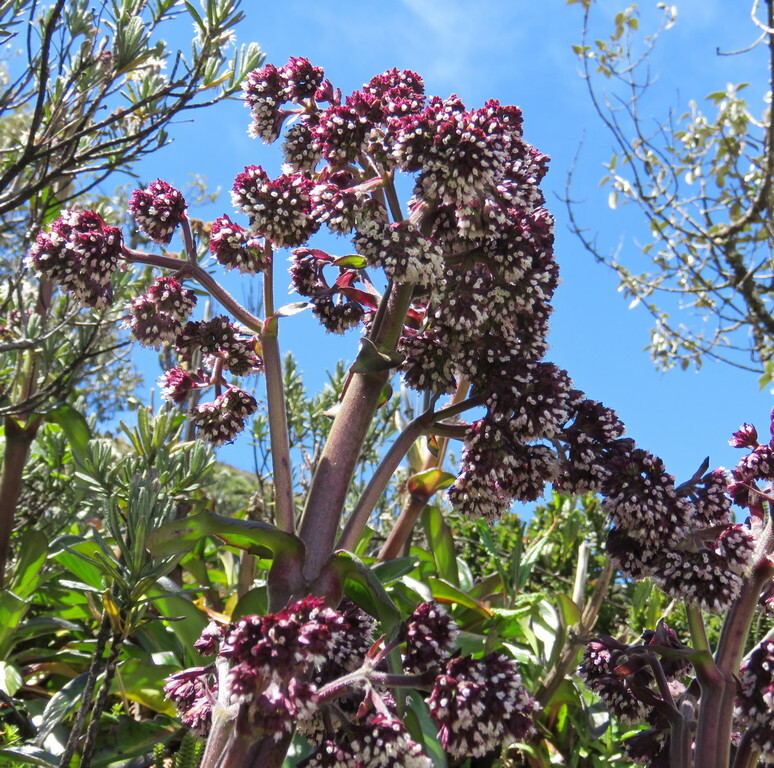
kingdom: Plantae
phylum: Tracheophyta
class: Magnoliopsida
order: Dipsacales
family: Caprifoliaceae
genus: Valeriana
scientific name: Valeriana pilosa
